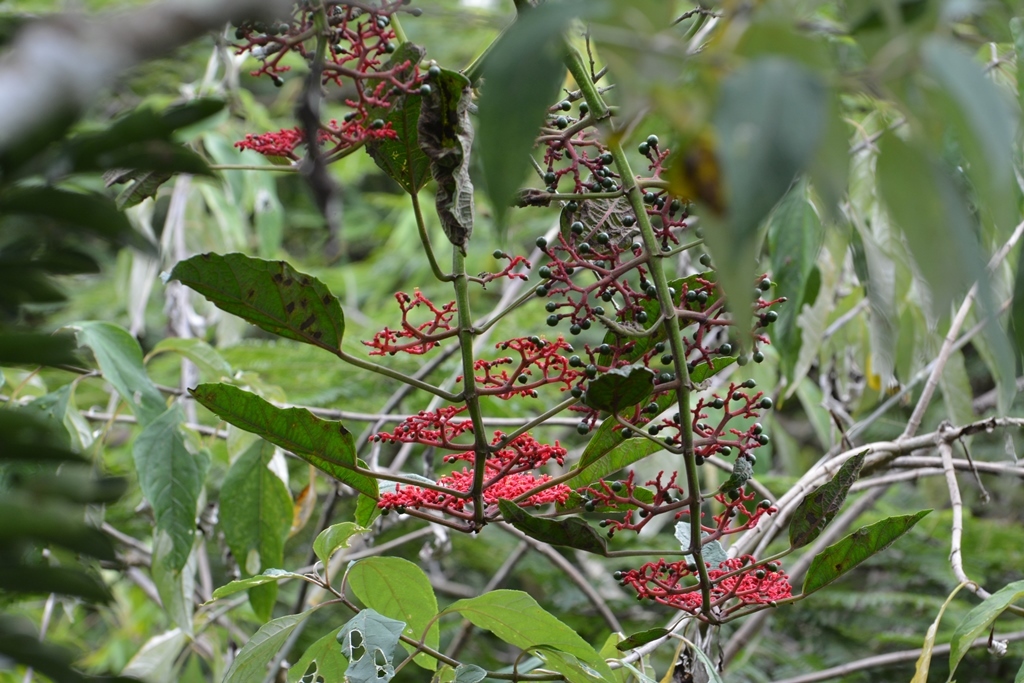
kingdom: Plantae
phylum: Tracheophyta
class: Magnoliopsida
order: Vitales
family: Vitaceae
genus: Cissus
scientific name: Cissus biformifolia
